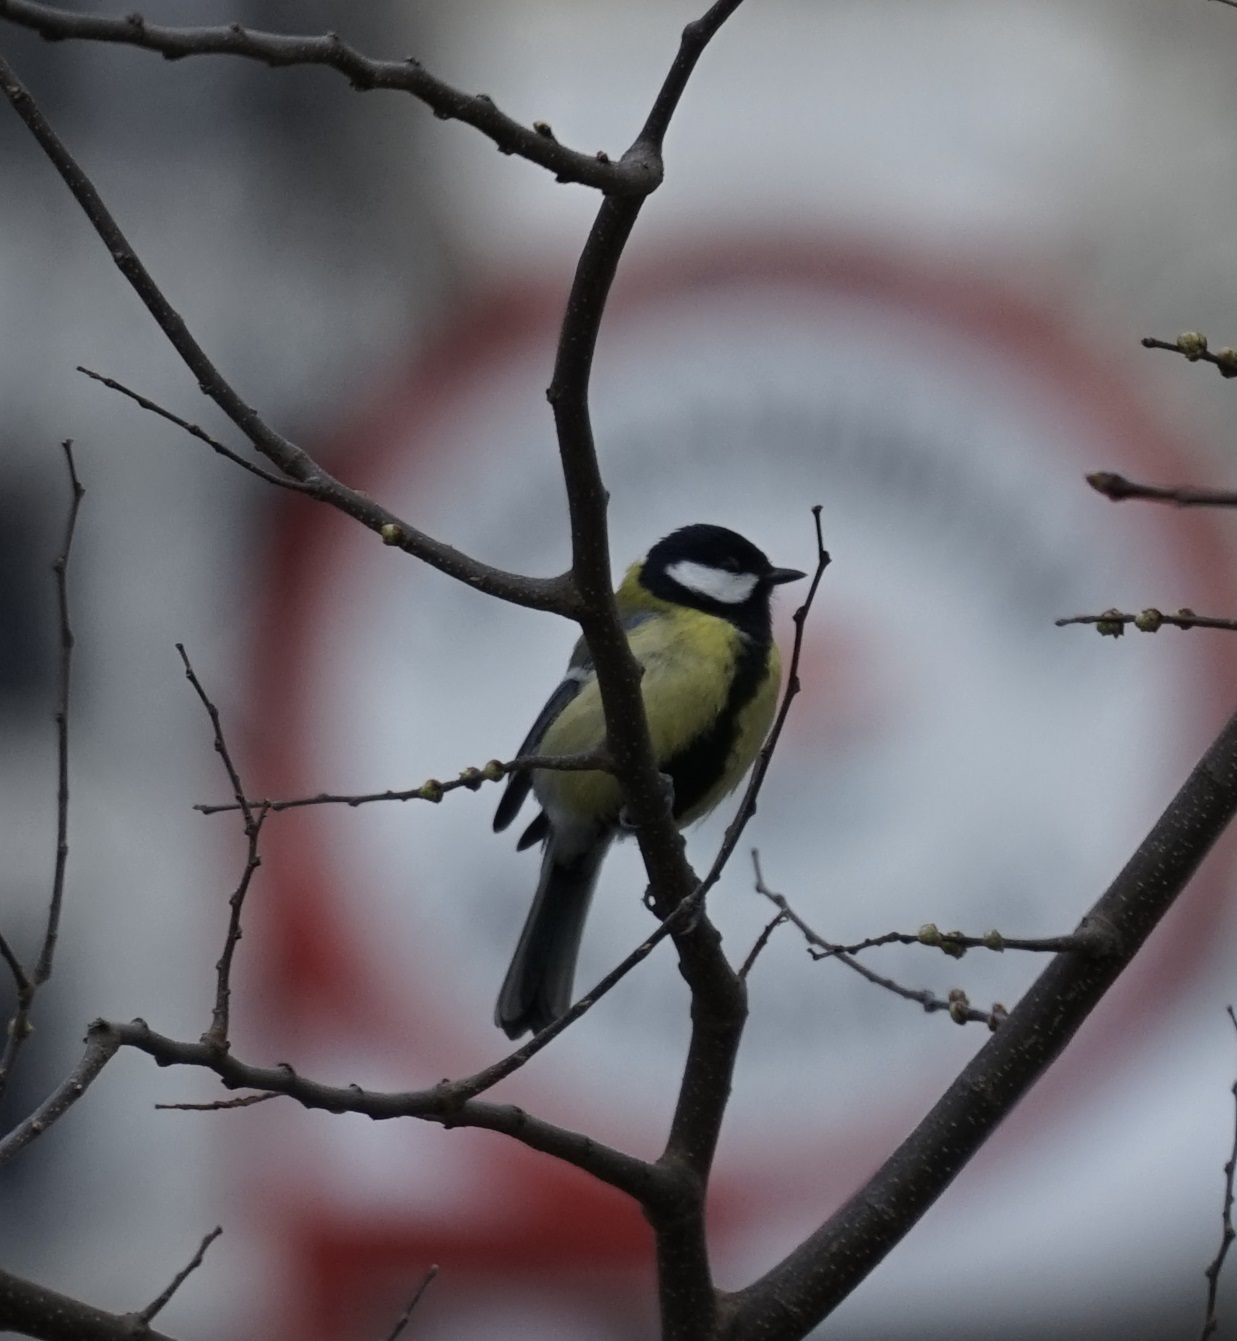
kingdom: Animalia
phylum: Chordata
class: Aves
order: Passeriformes
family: Paridae
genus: Parus
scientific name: Parus major
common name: Great tit
